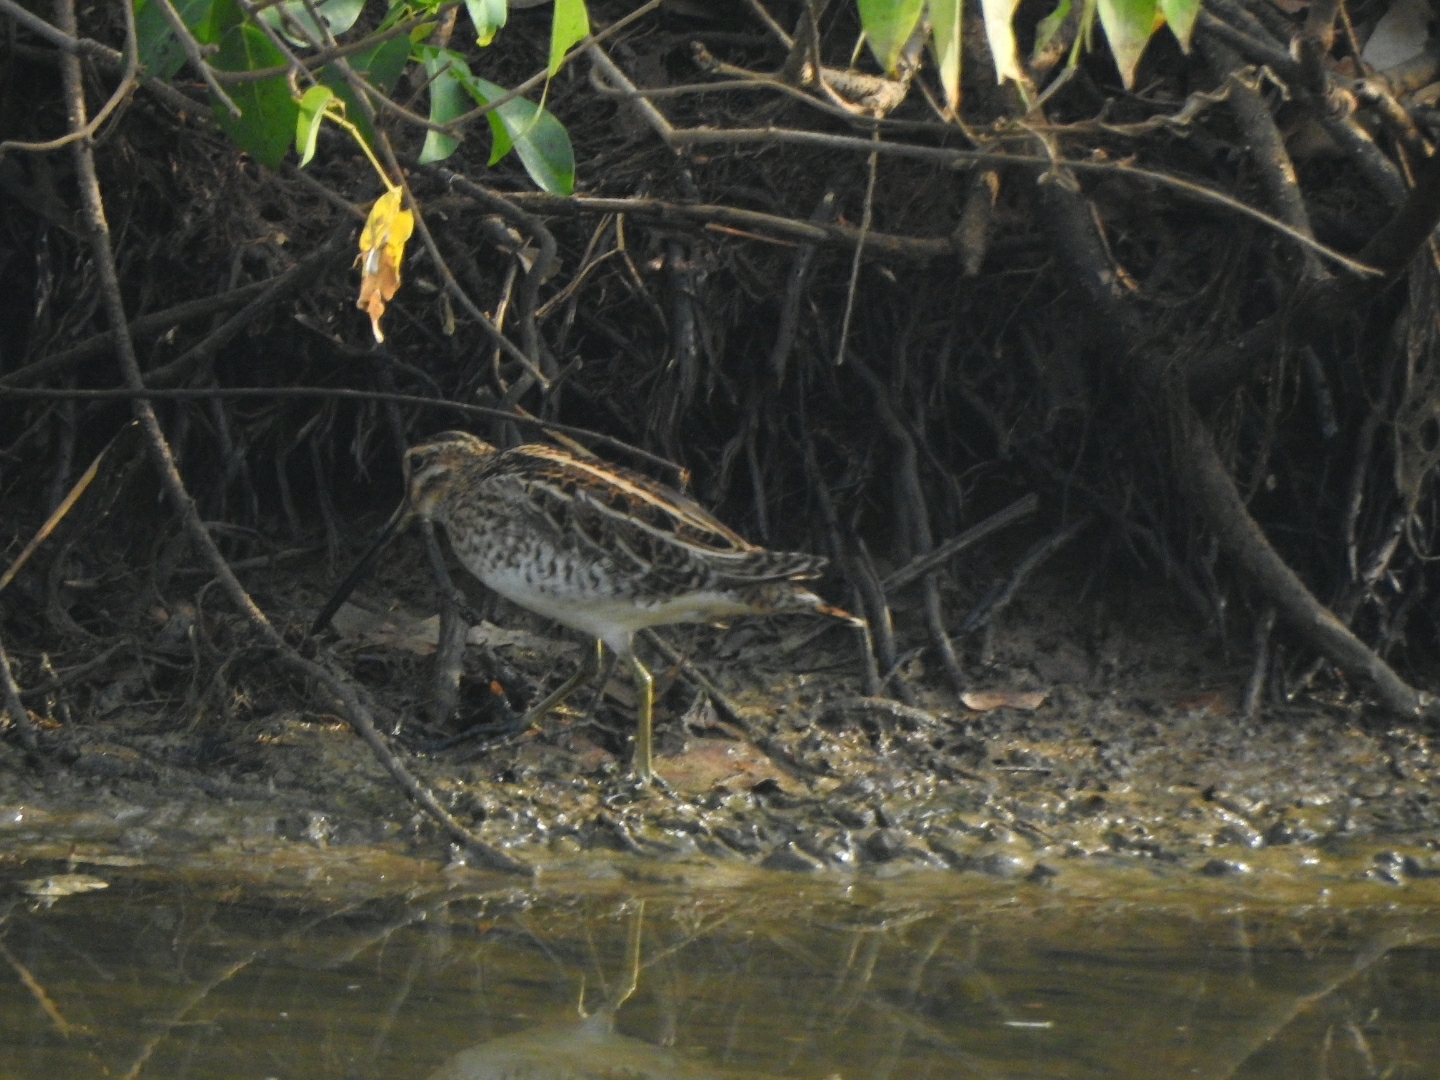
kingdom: Animalia
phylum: Chordata
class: Aves
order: Charadriiformes
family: Scolopacidae
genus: Gallinago
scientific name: Gallinago gallinago
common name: Common snipe
